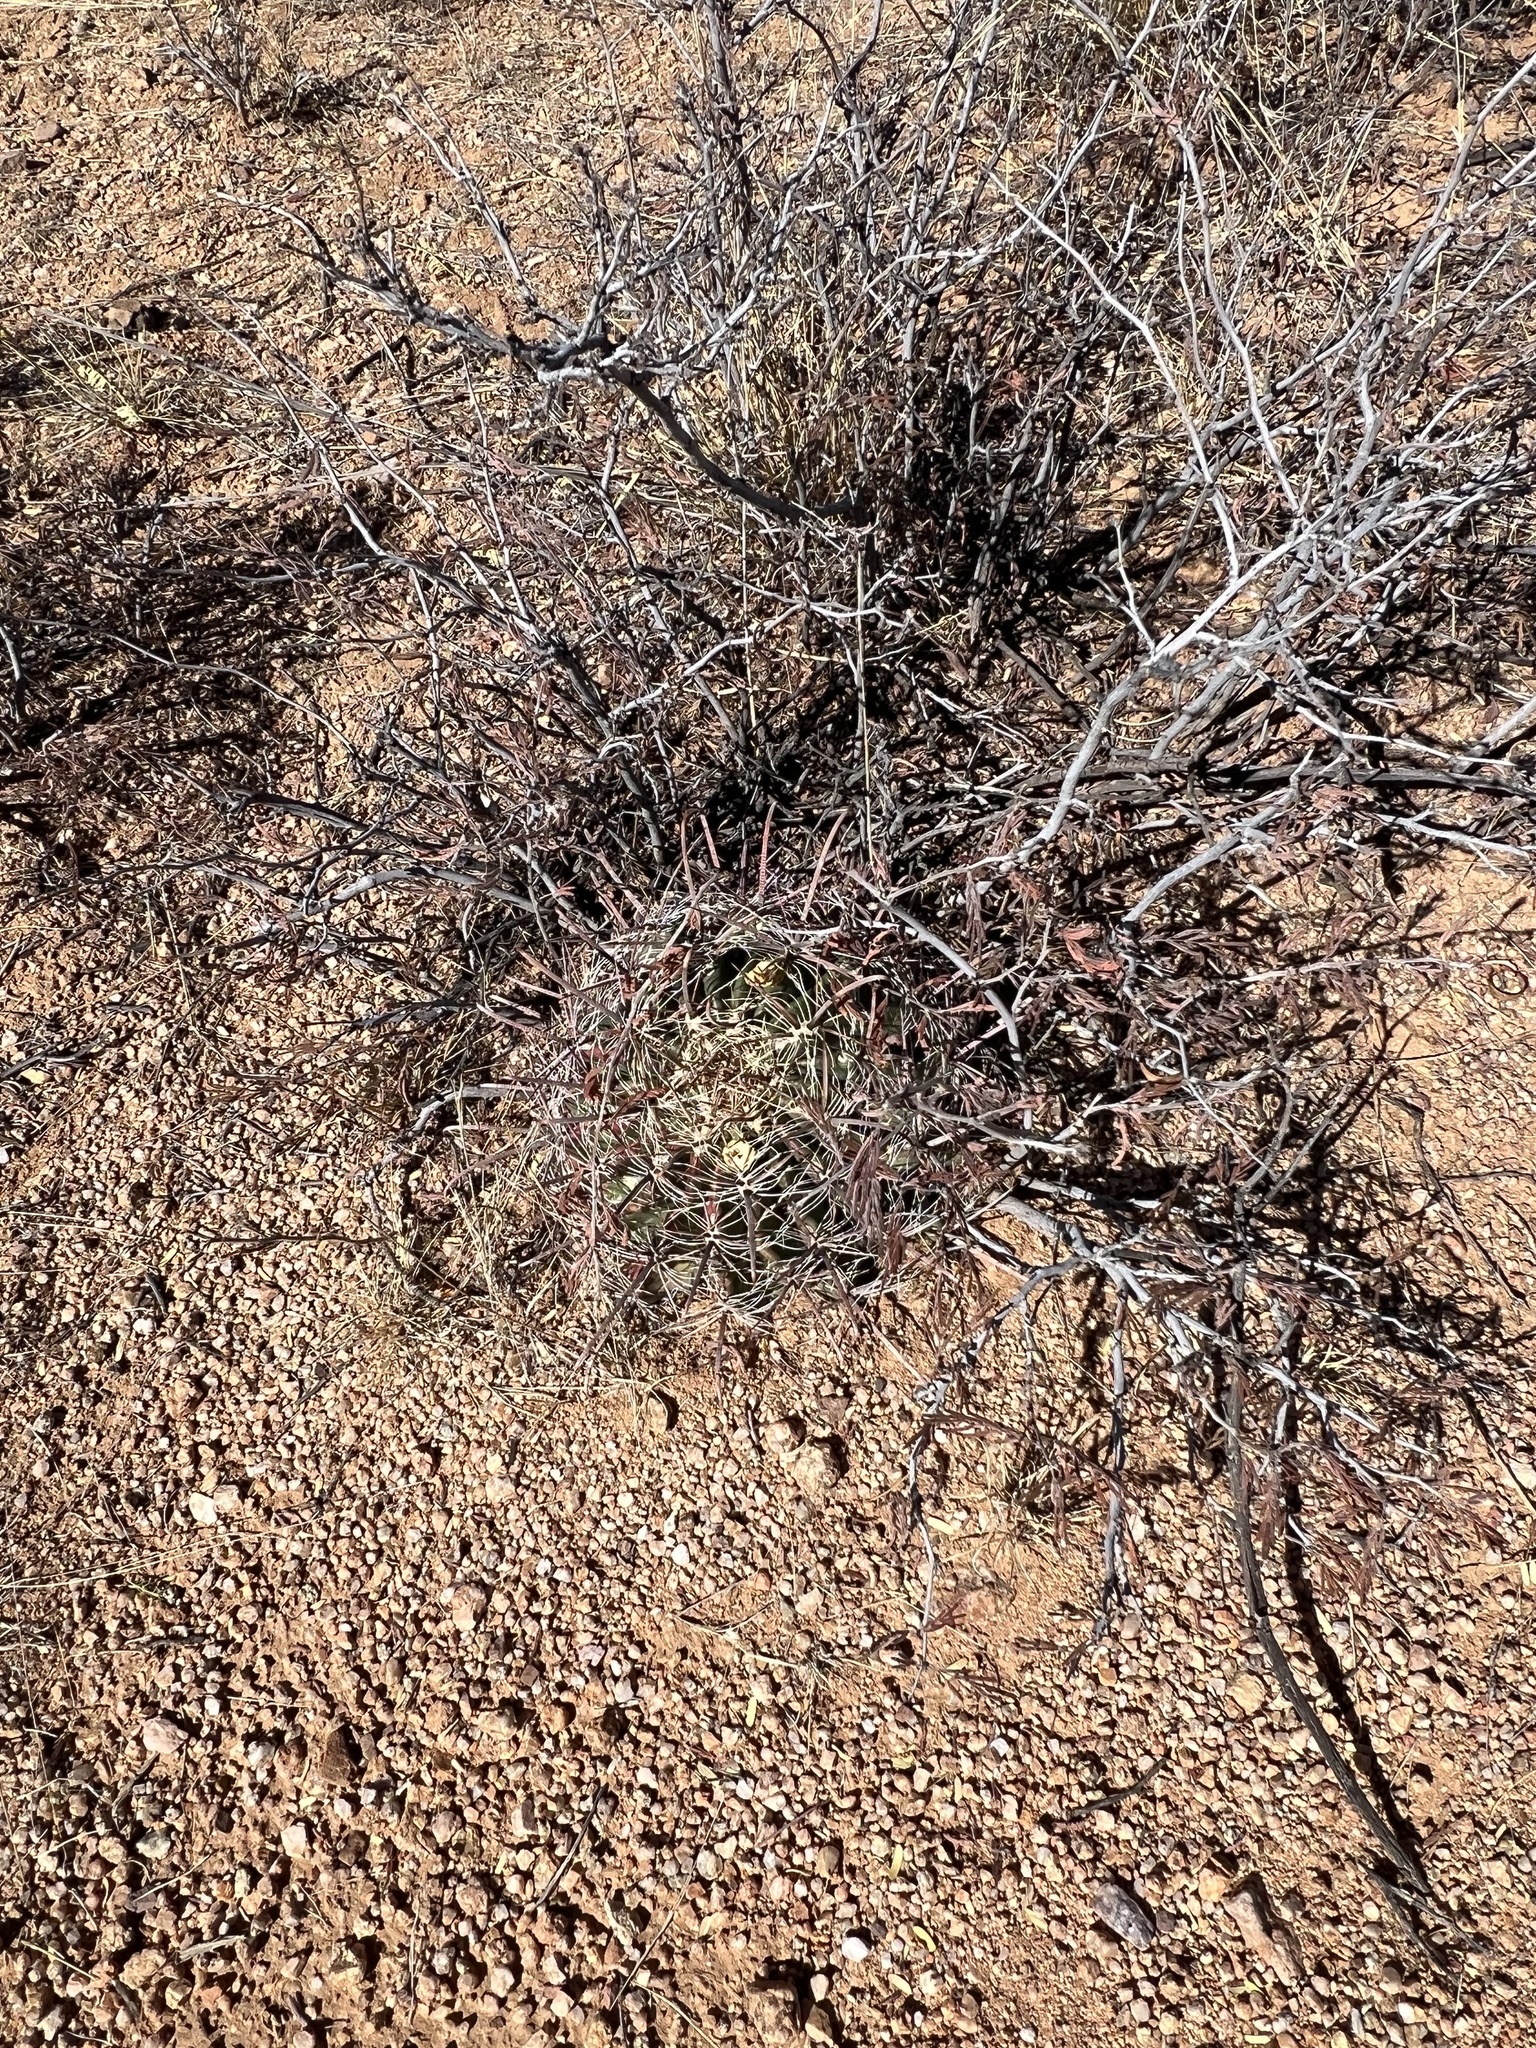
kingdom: Plantae
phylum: Tracheophyta
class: Magnoliopsida
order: Caryophyllales
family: Cactaceae
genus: Ferocactus
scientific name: Ferocactus wislizeni
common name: Candy barrel cactus
